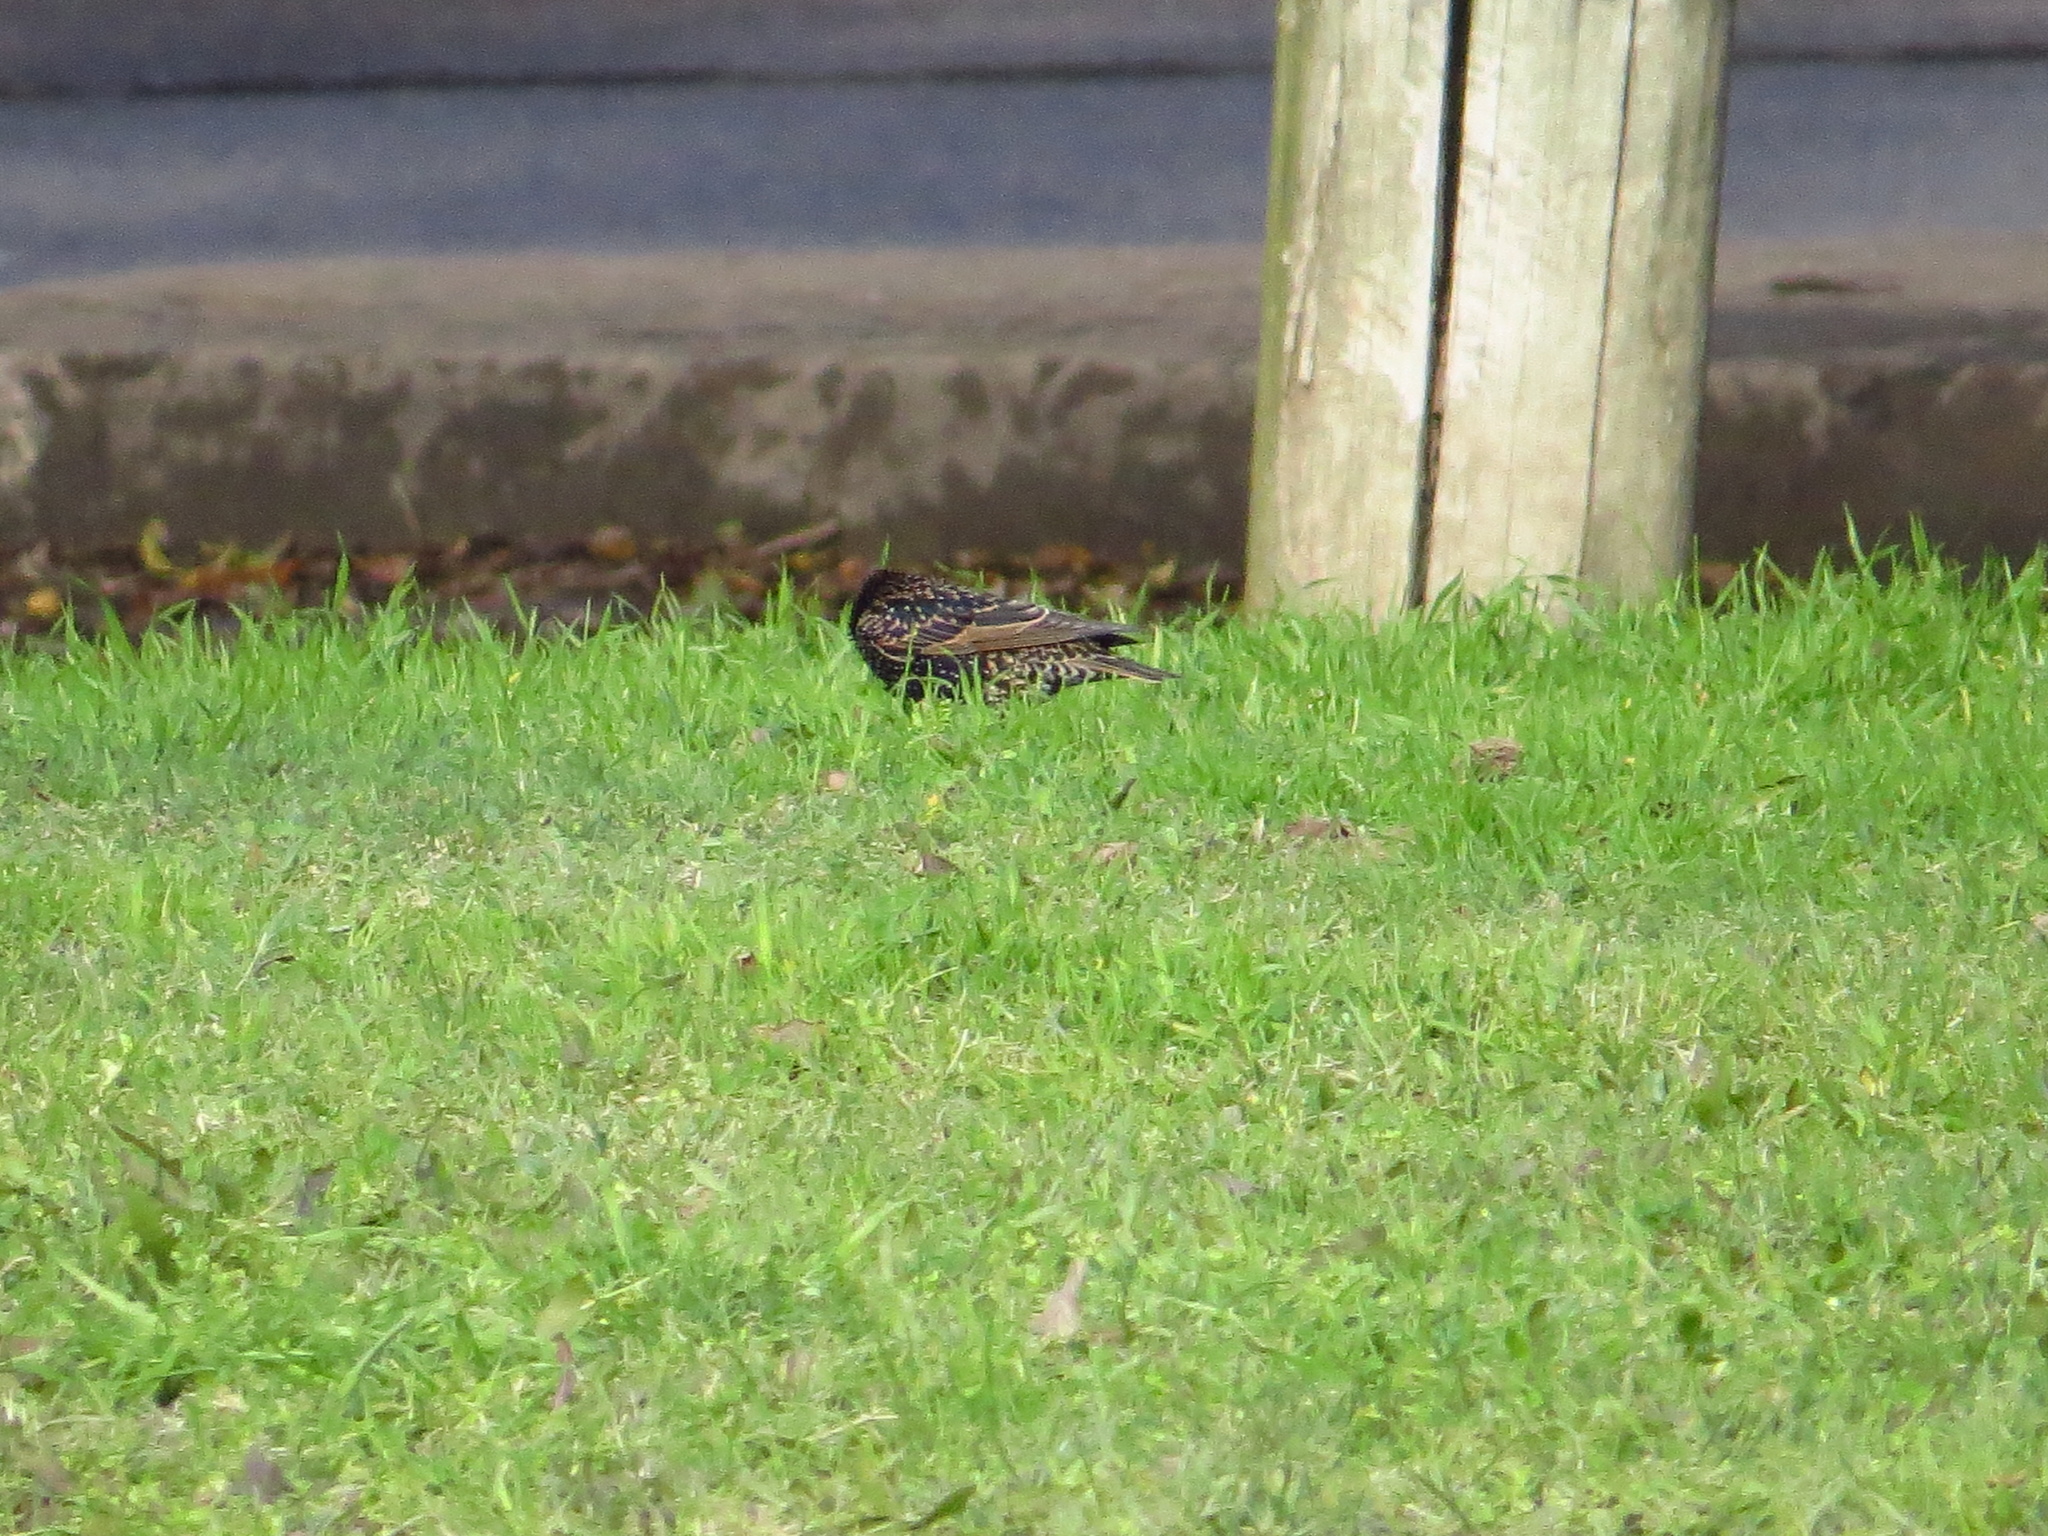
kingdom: Animalia
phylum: Chordata
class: Aves
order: Passeriformes
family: Sturnidae
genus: Sturnus
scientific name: Sturnus vulgaris
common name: Common starling
